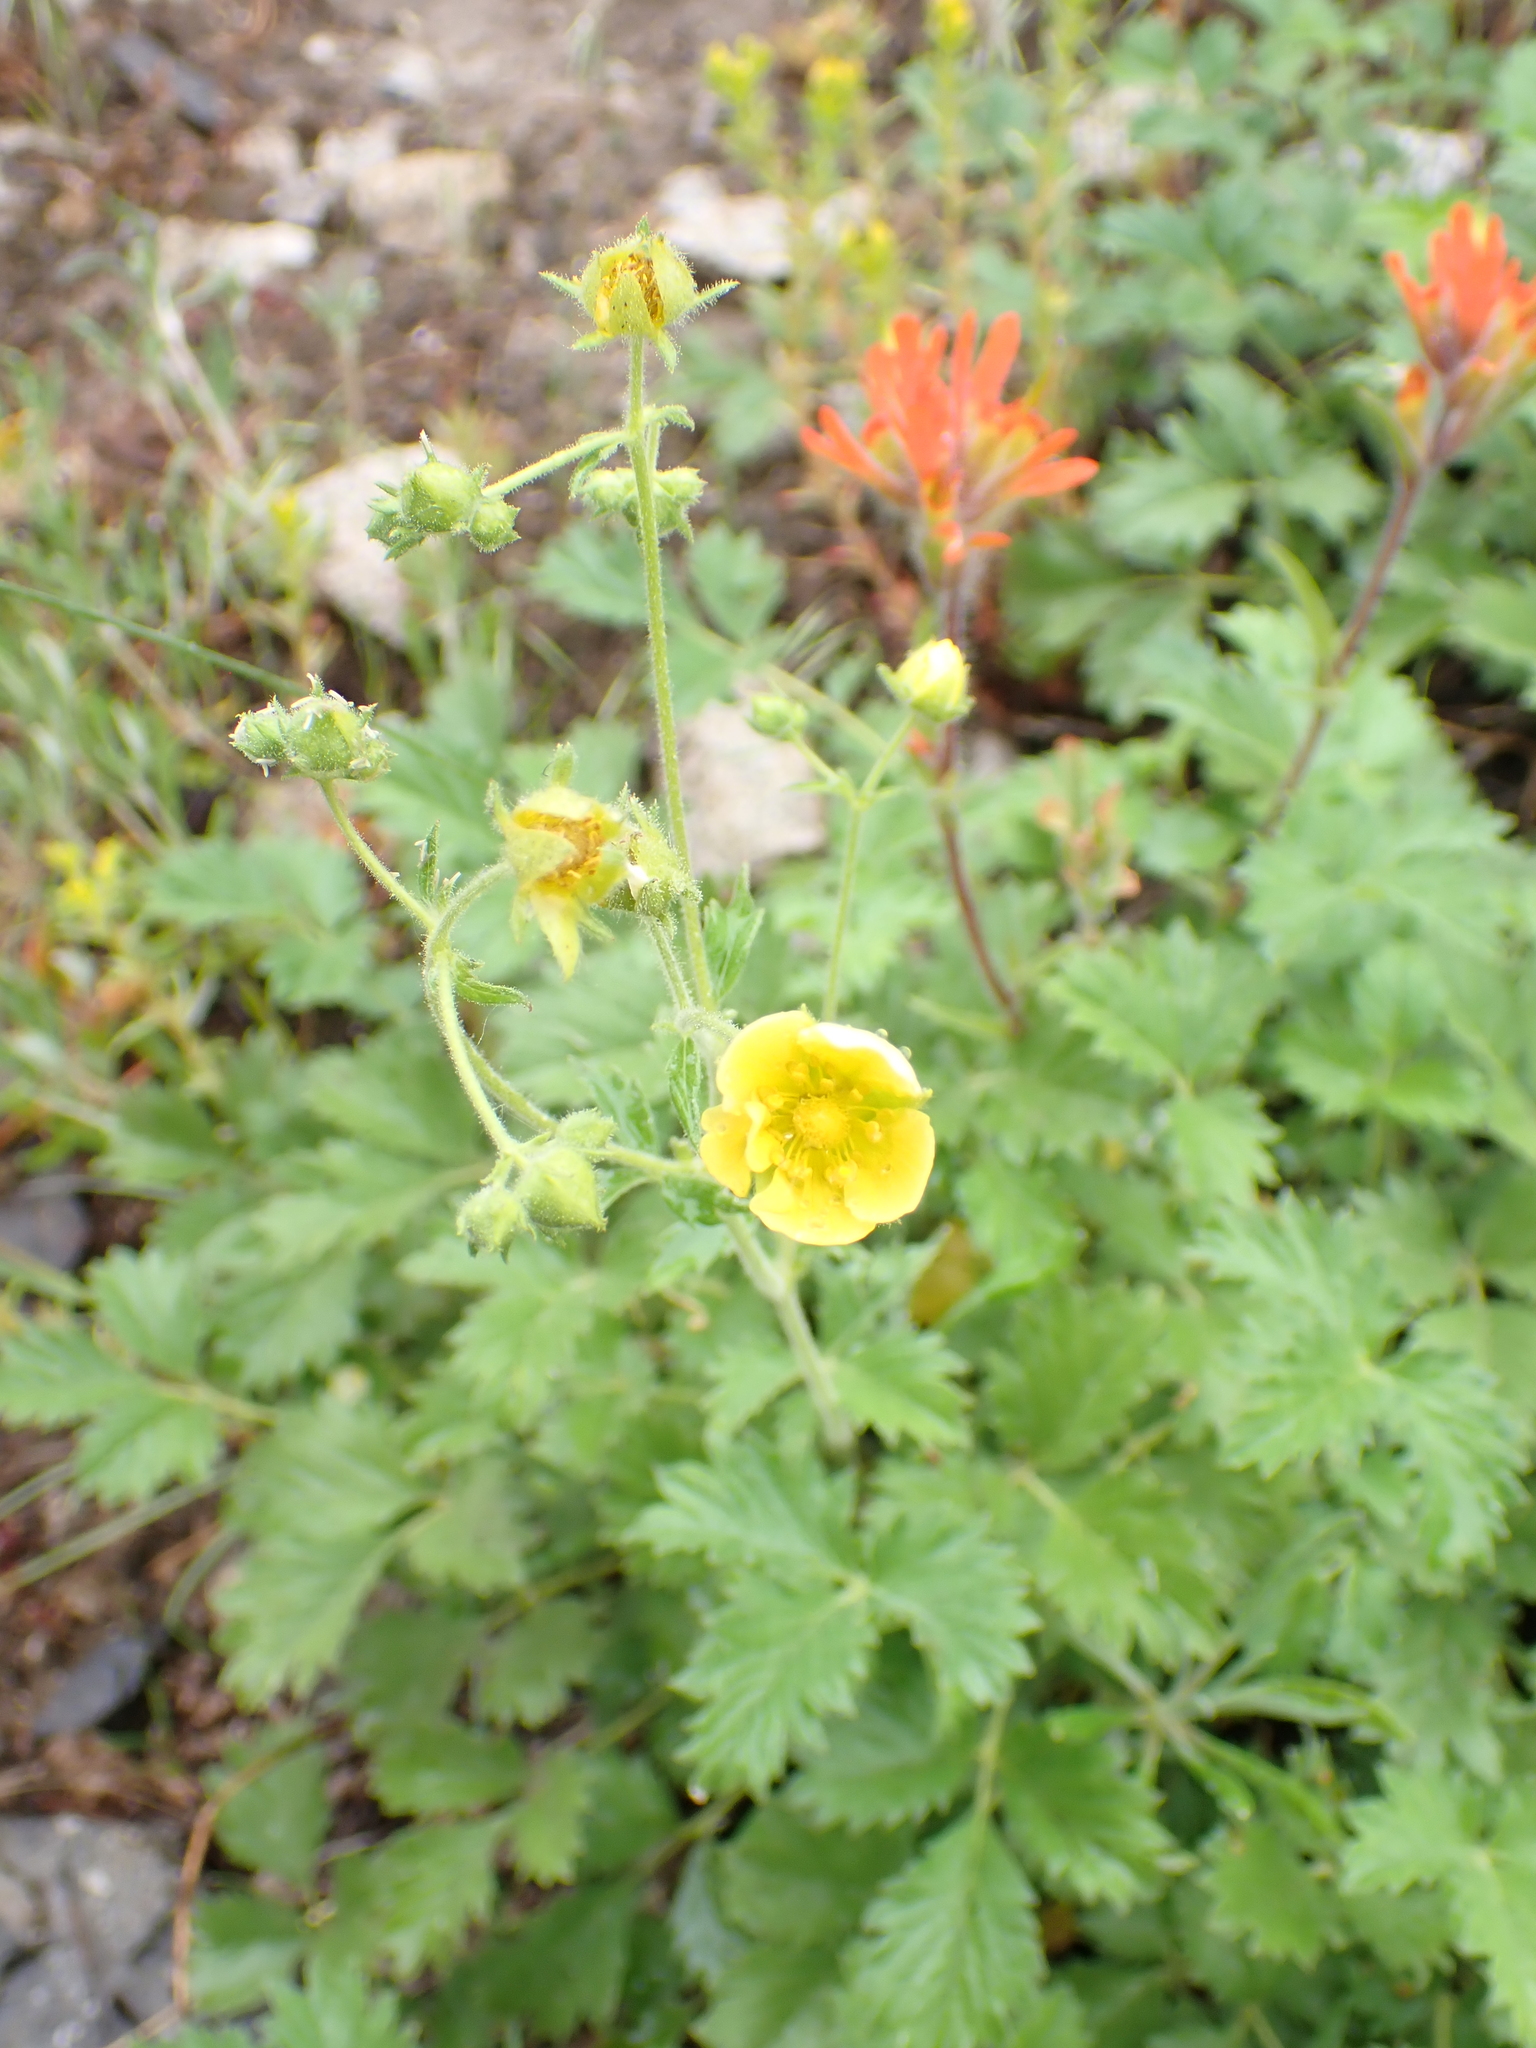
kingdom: Plantae
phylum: Tracheophyta
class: Magnoliopsida
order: Rosales
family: Rosaceae
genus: Potentilla
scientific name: Potentilla flabellifolia
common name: Mount rainier cinquefoil
